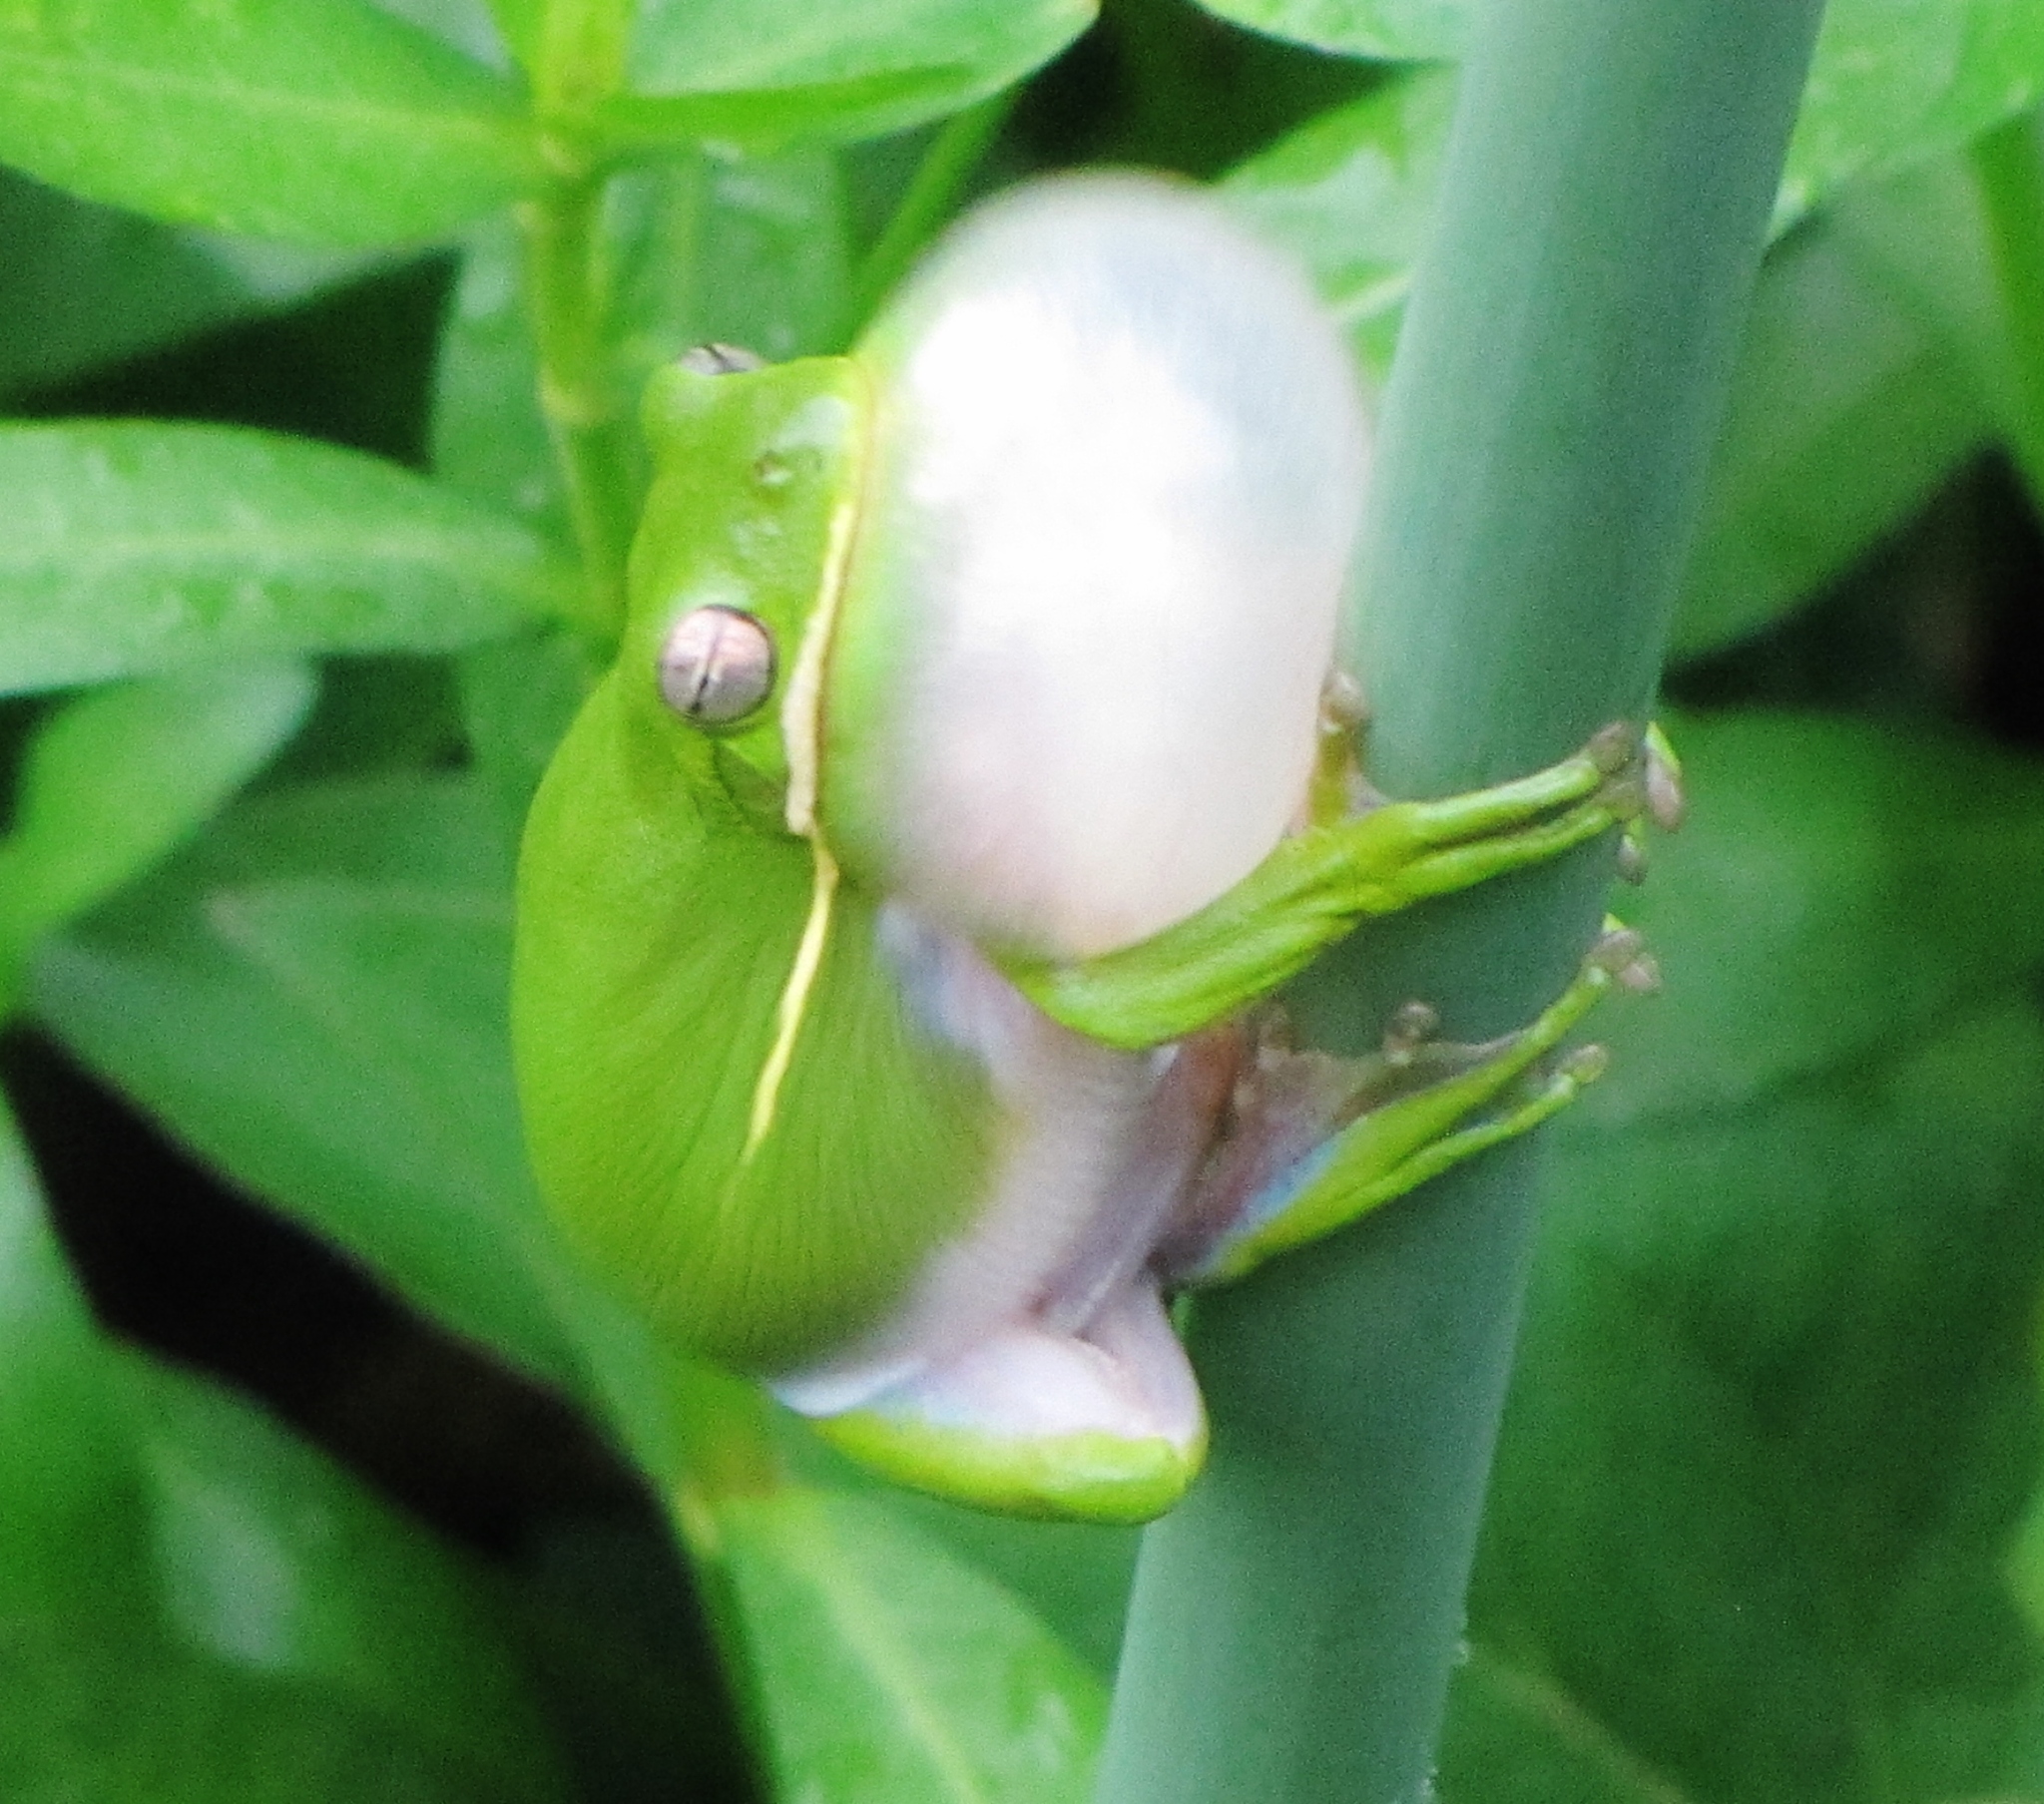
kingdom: Animalia
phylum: Chordata
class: Amphibia
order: Anura
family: Hylidae
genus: Dryophytes
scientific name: Dryophytes cinereus
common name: Green treefrog
